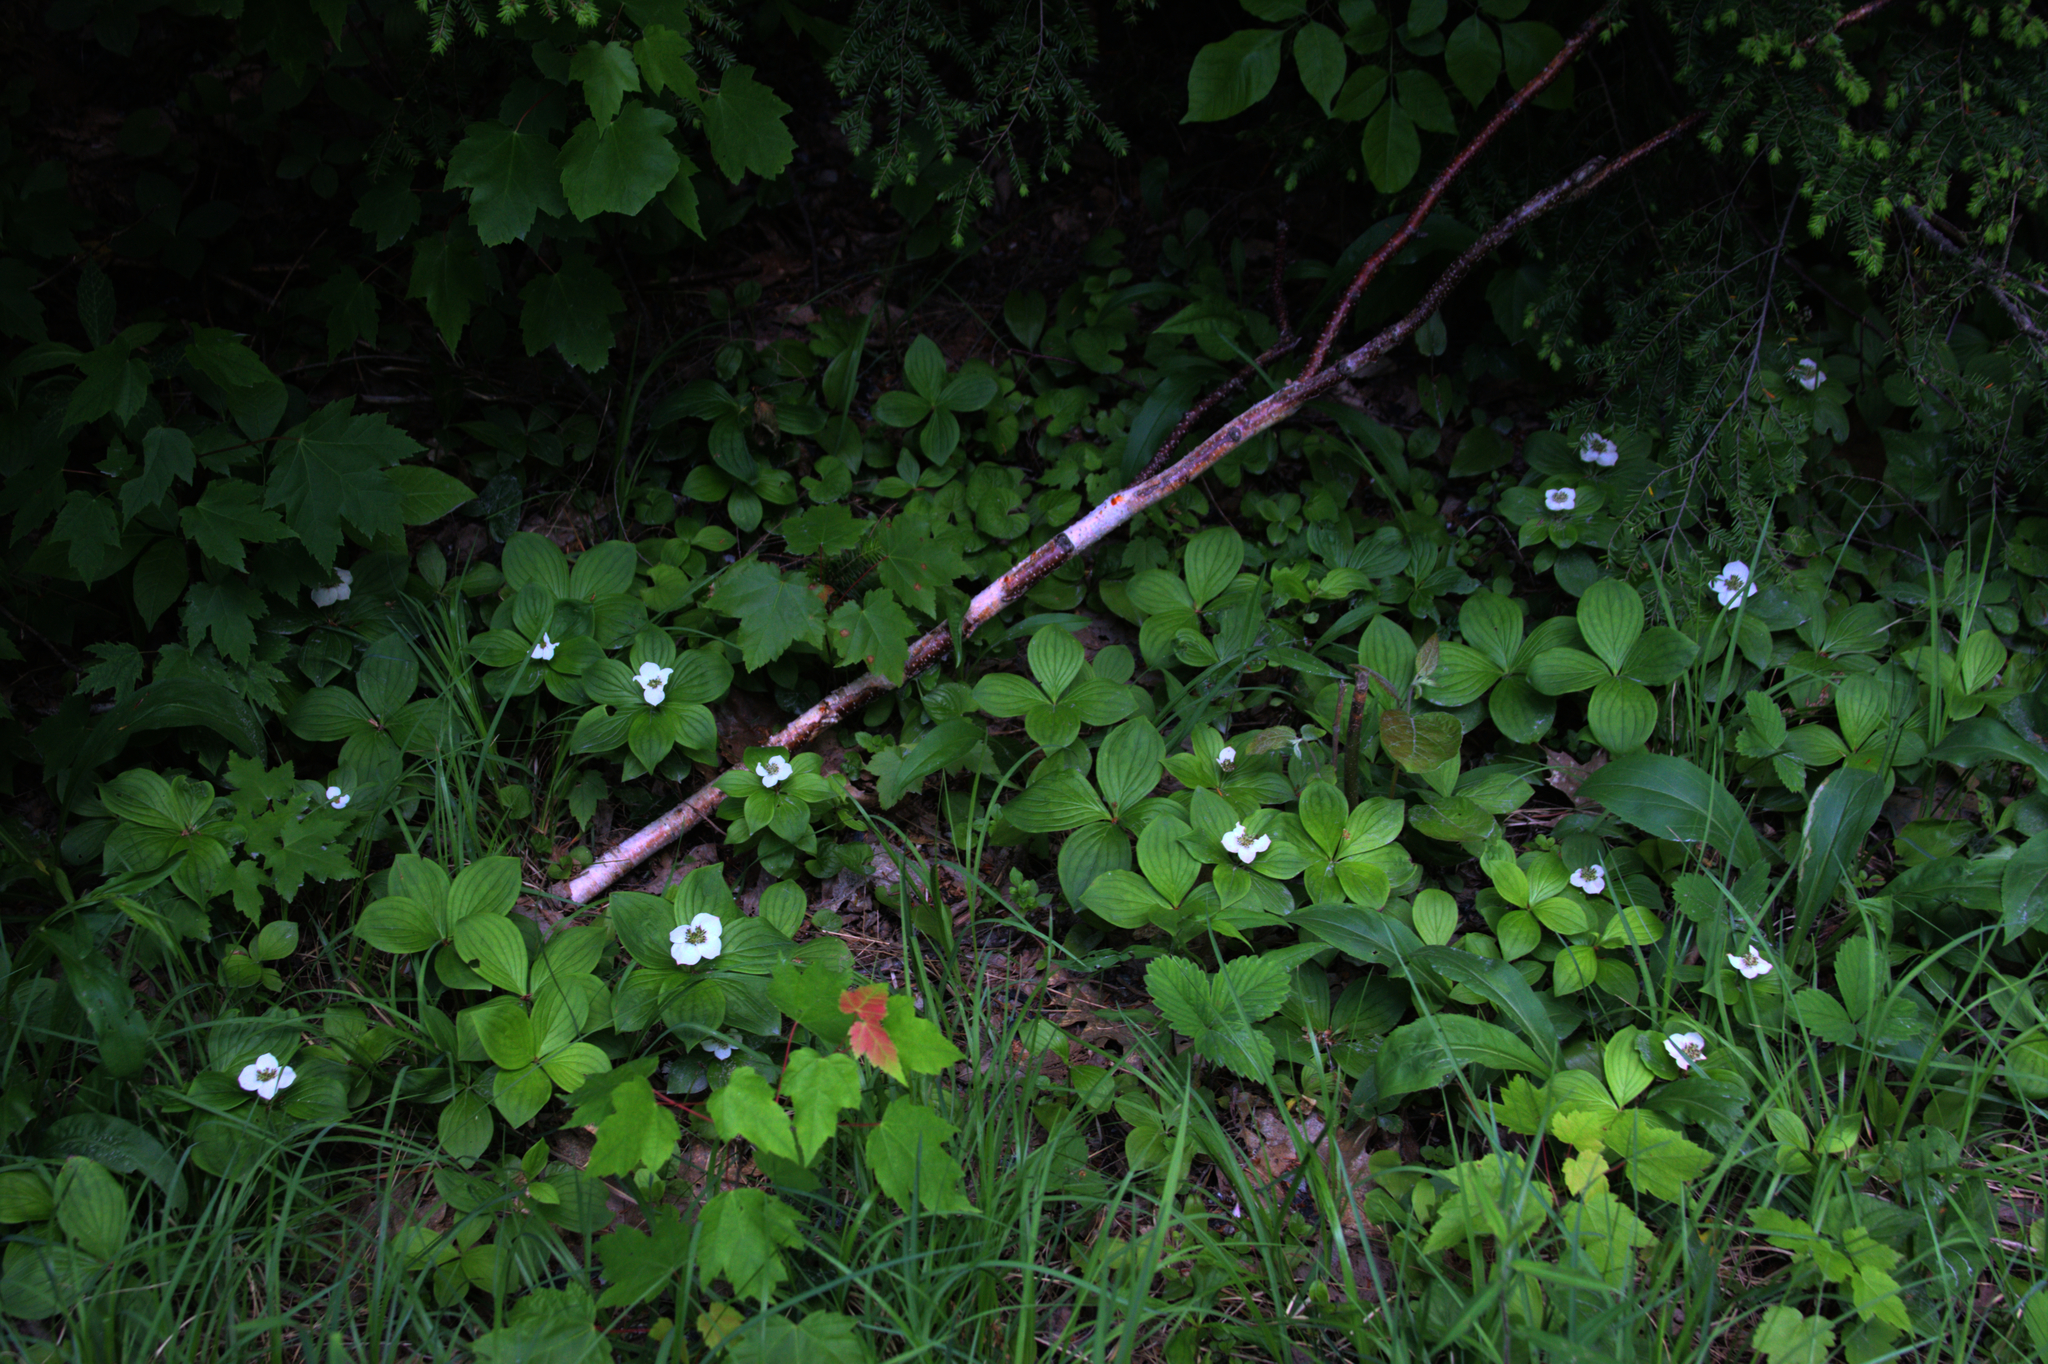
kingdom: Plantae
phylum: Tracheophyta
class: Magnoliopsida
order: Cornales
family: Cornaceae
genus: Cornus
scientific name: Cornus canadensis
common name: Creeping dogwood
